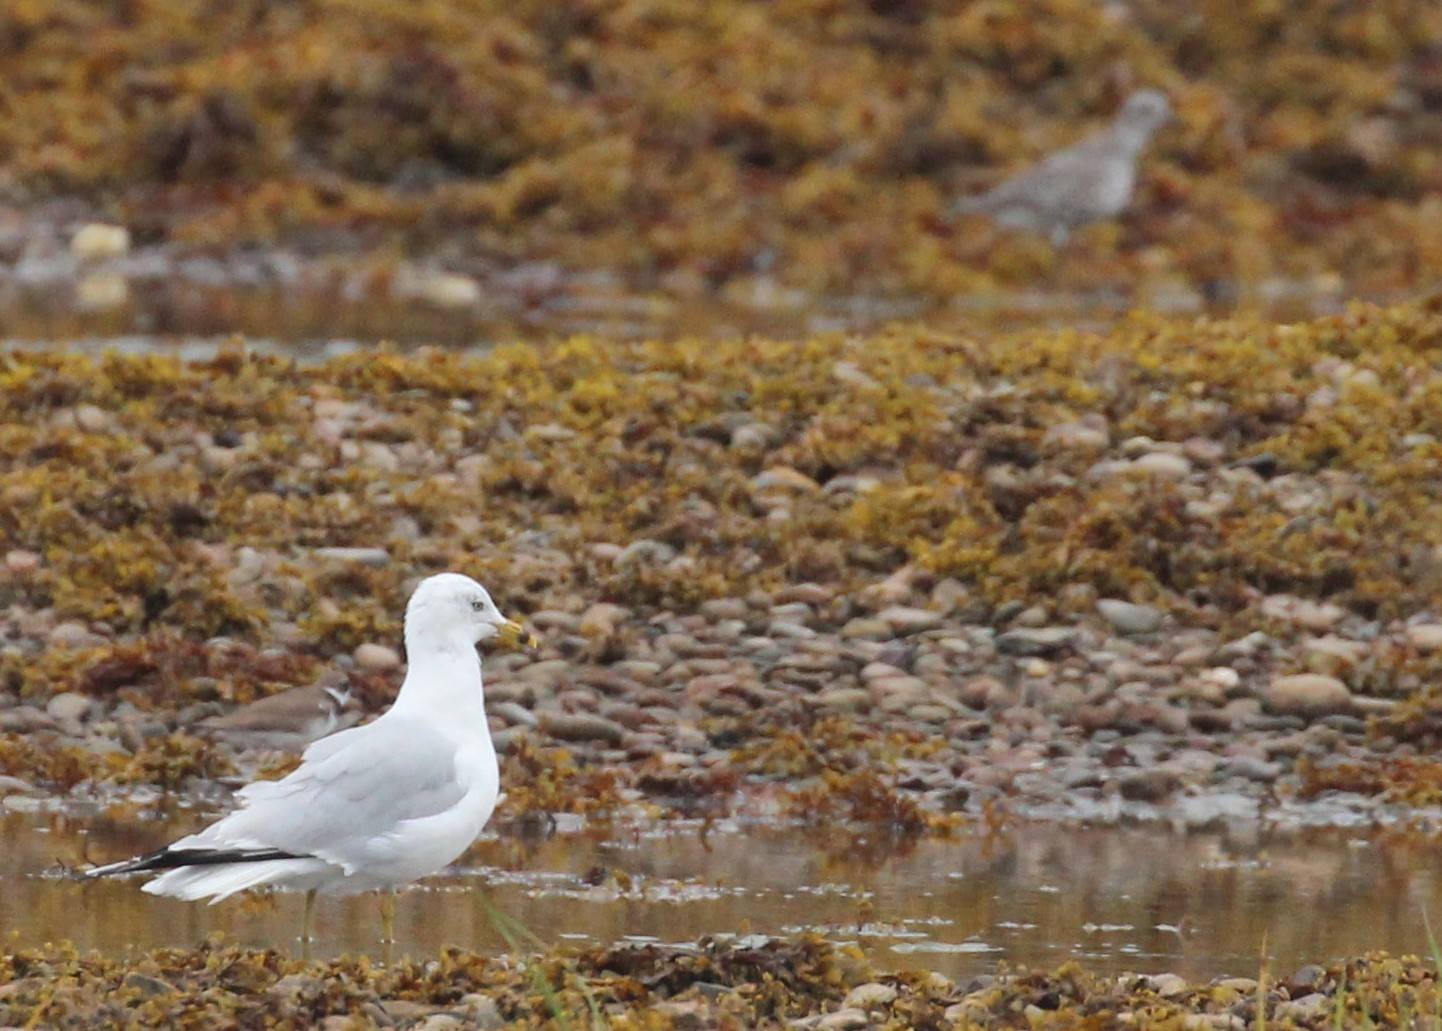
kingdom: Animalia
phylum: Chordata
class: Aves
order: Charadriiformes
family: Laridae
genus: Larus
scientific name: Larus delawarensis
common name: Ring-billed gull
